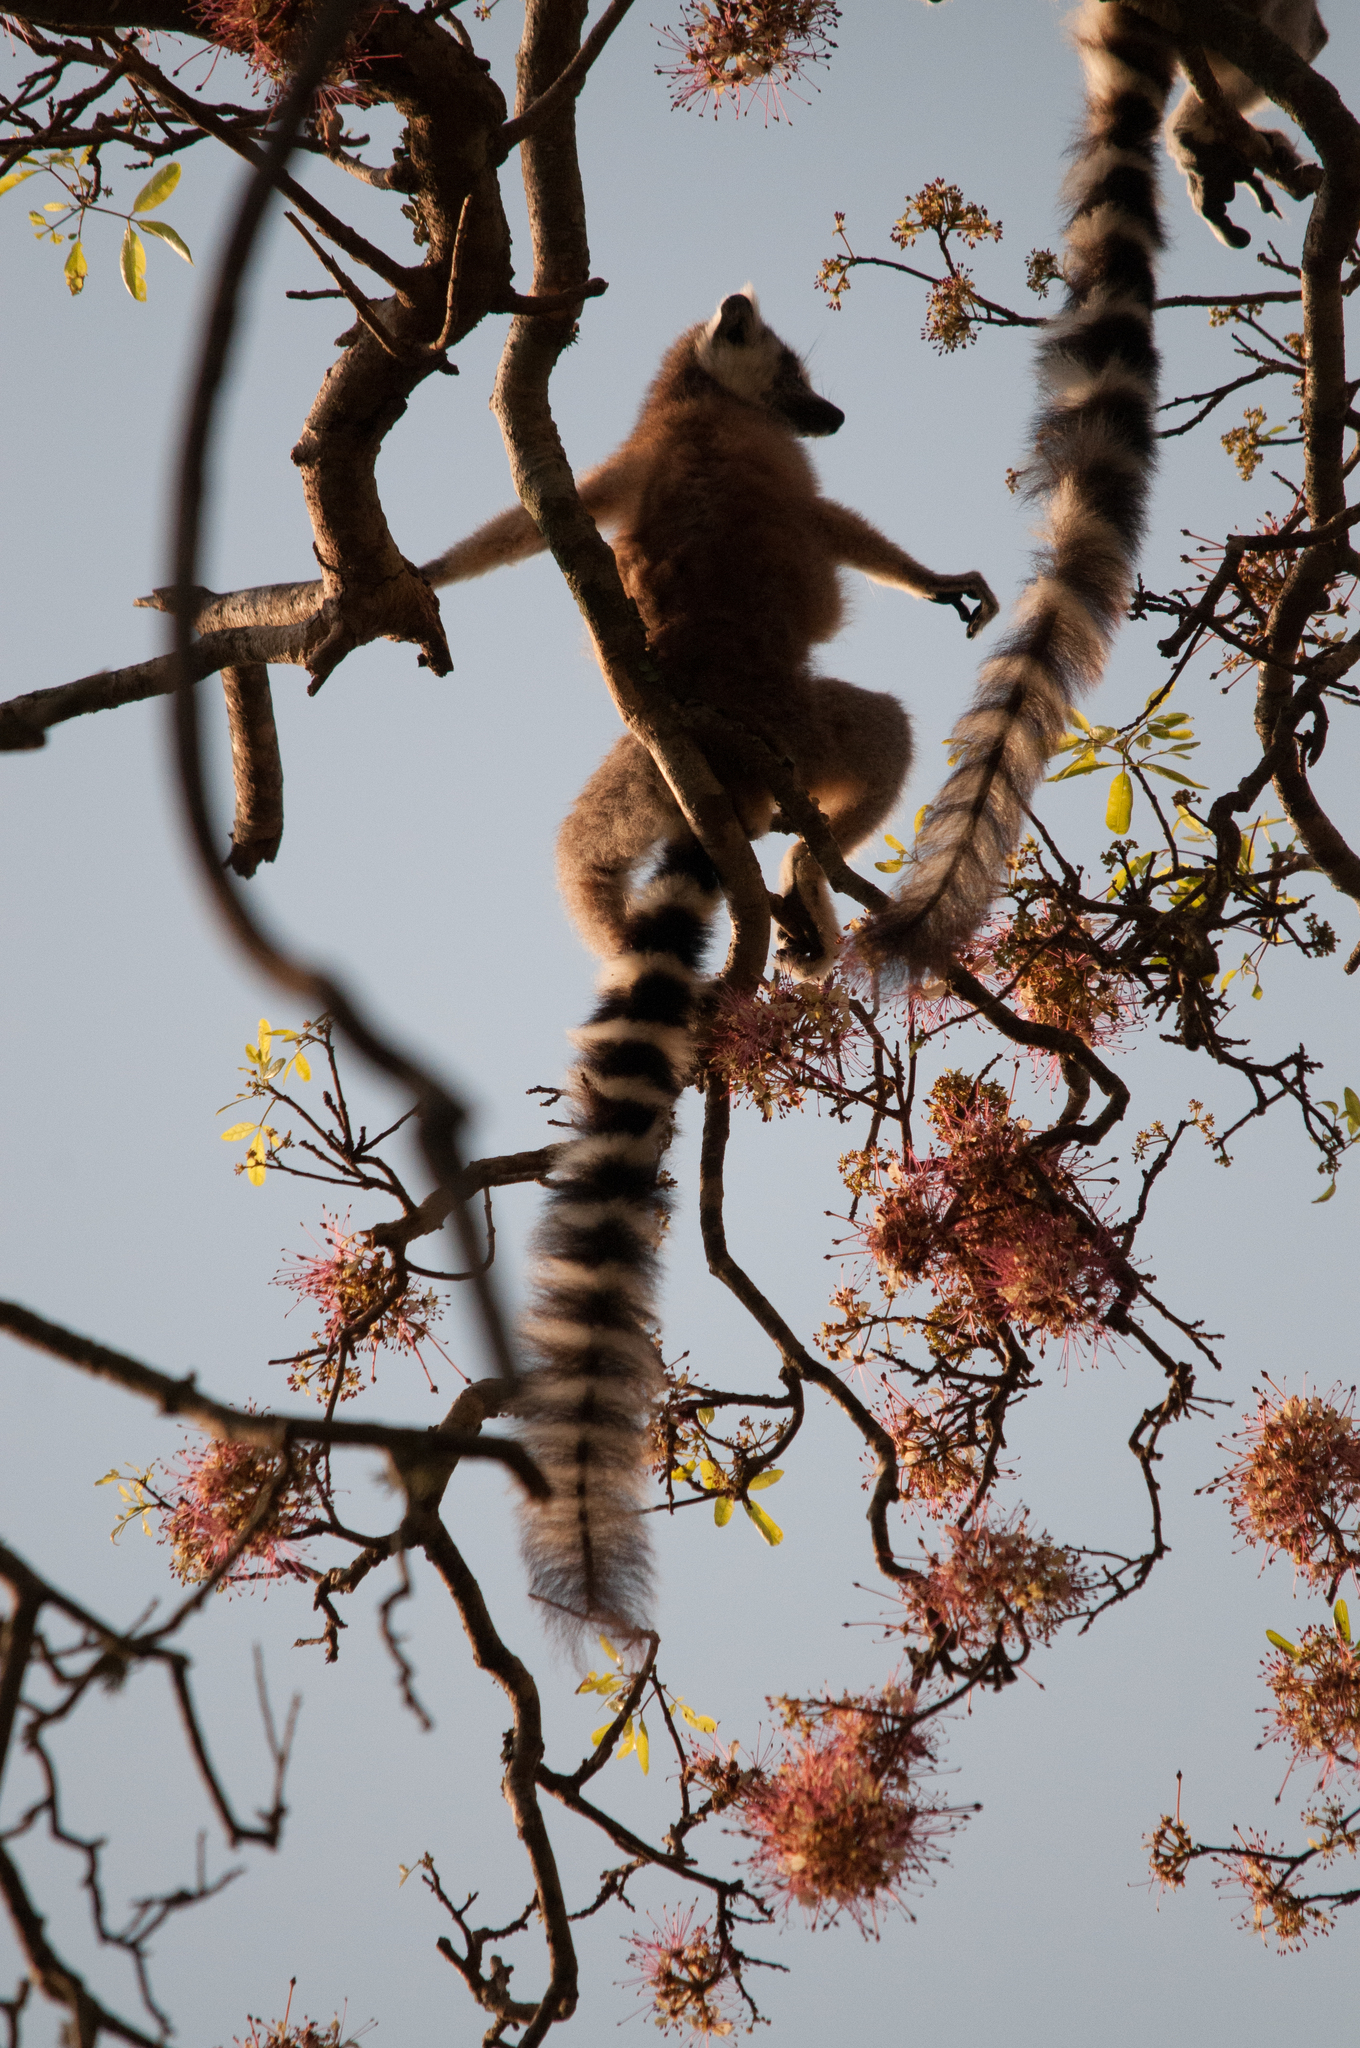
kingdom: Animalia
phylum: Chordata
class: Mammalia
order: Primates
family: Lemuridae
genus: Lemur
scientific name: Lemur catta
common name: Ring-tailed lemur
